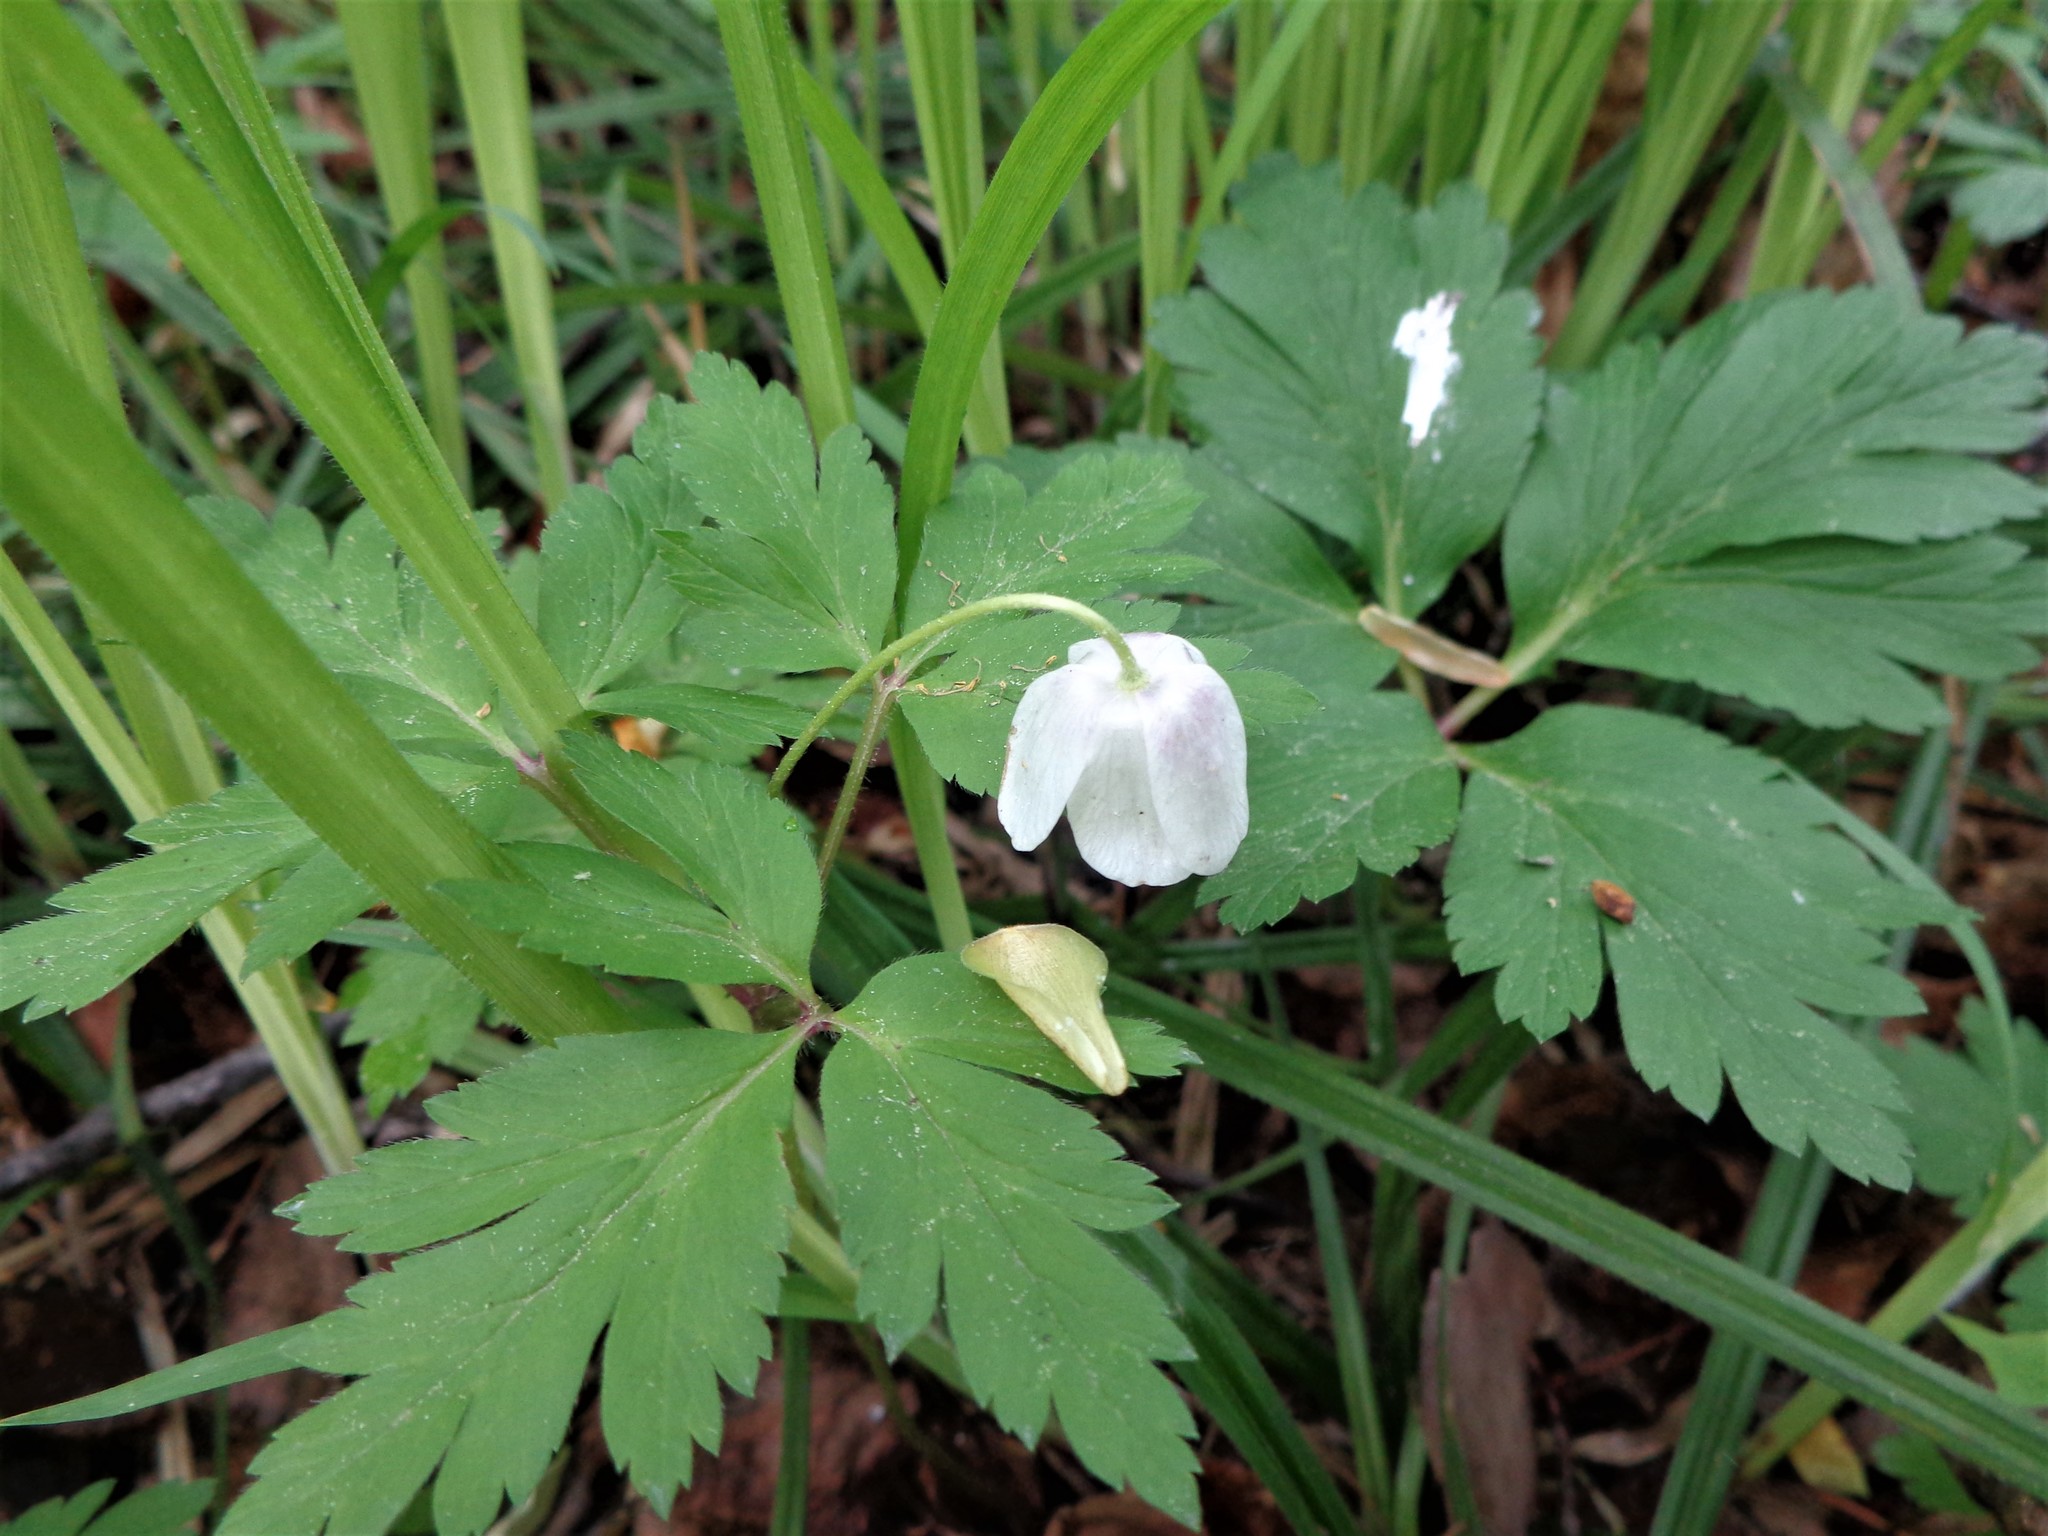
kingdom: Plantae
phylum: Tracheophyta
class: Magnoliopsida
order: Ranunculales
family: Ranunculaceae
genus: Anemone
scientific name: Anemone nemorosa
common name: Wood anemone
